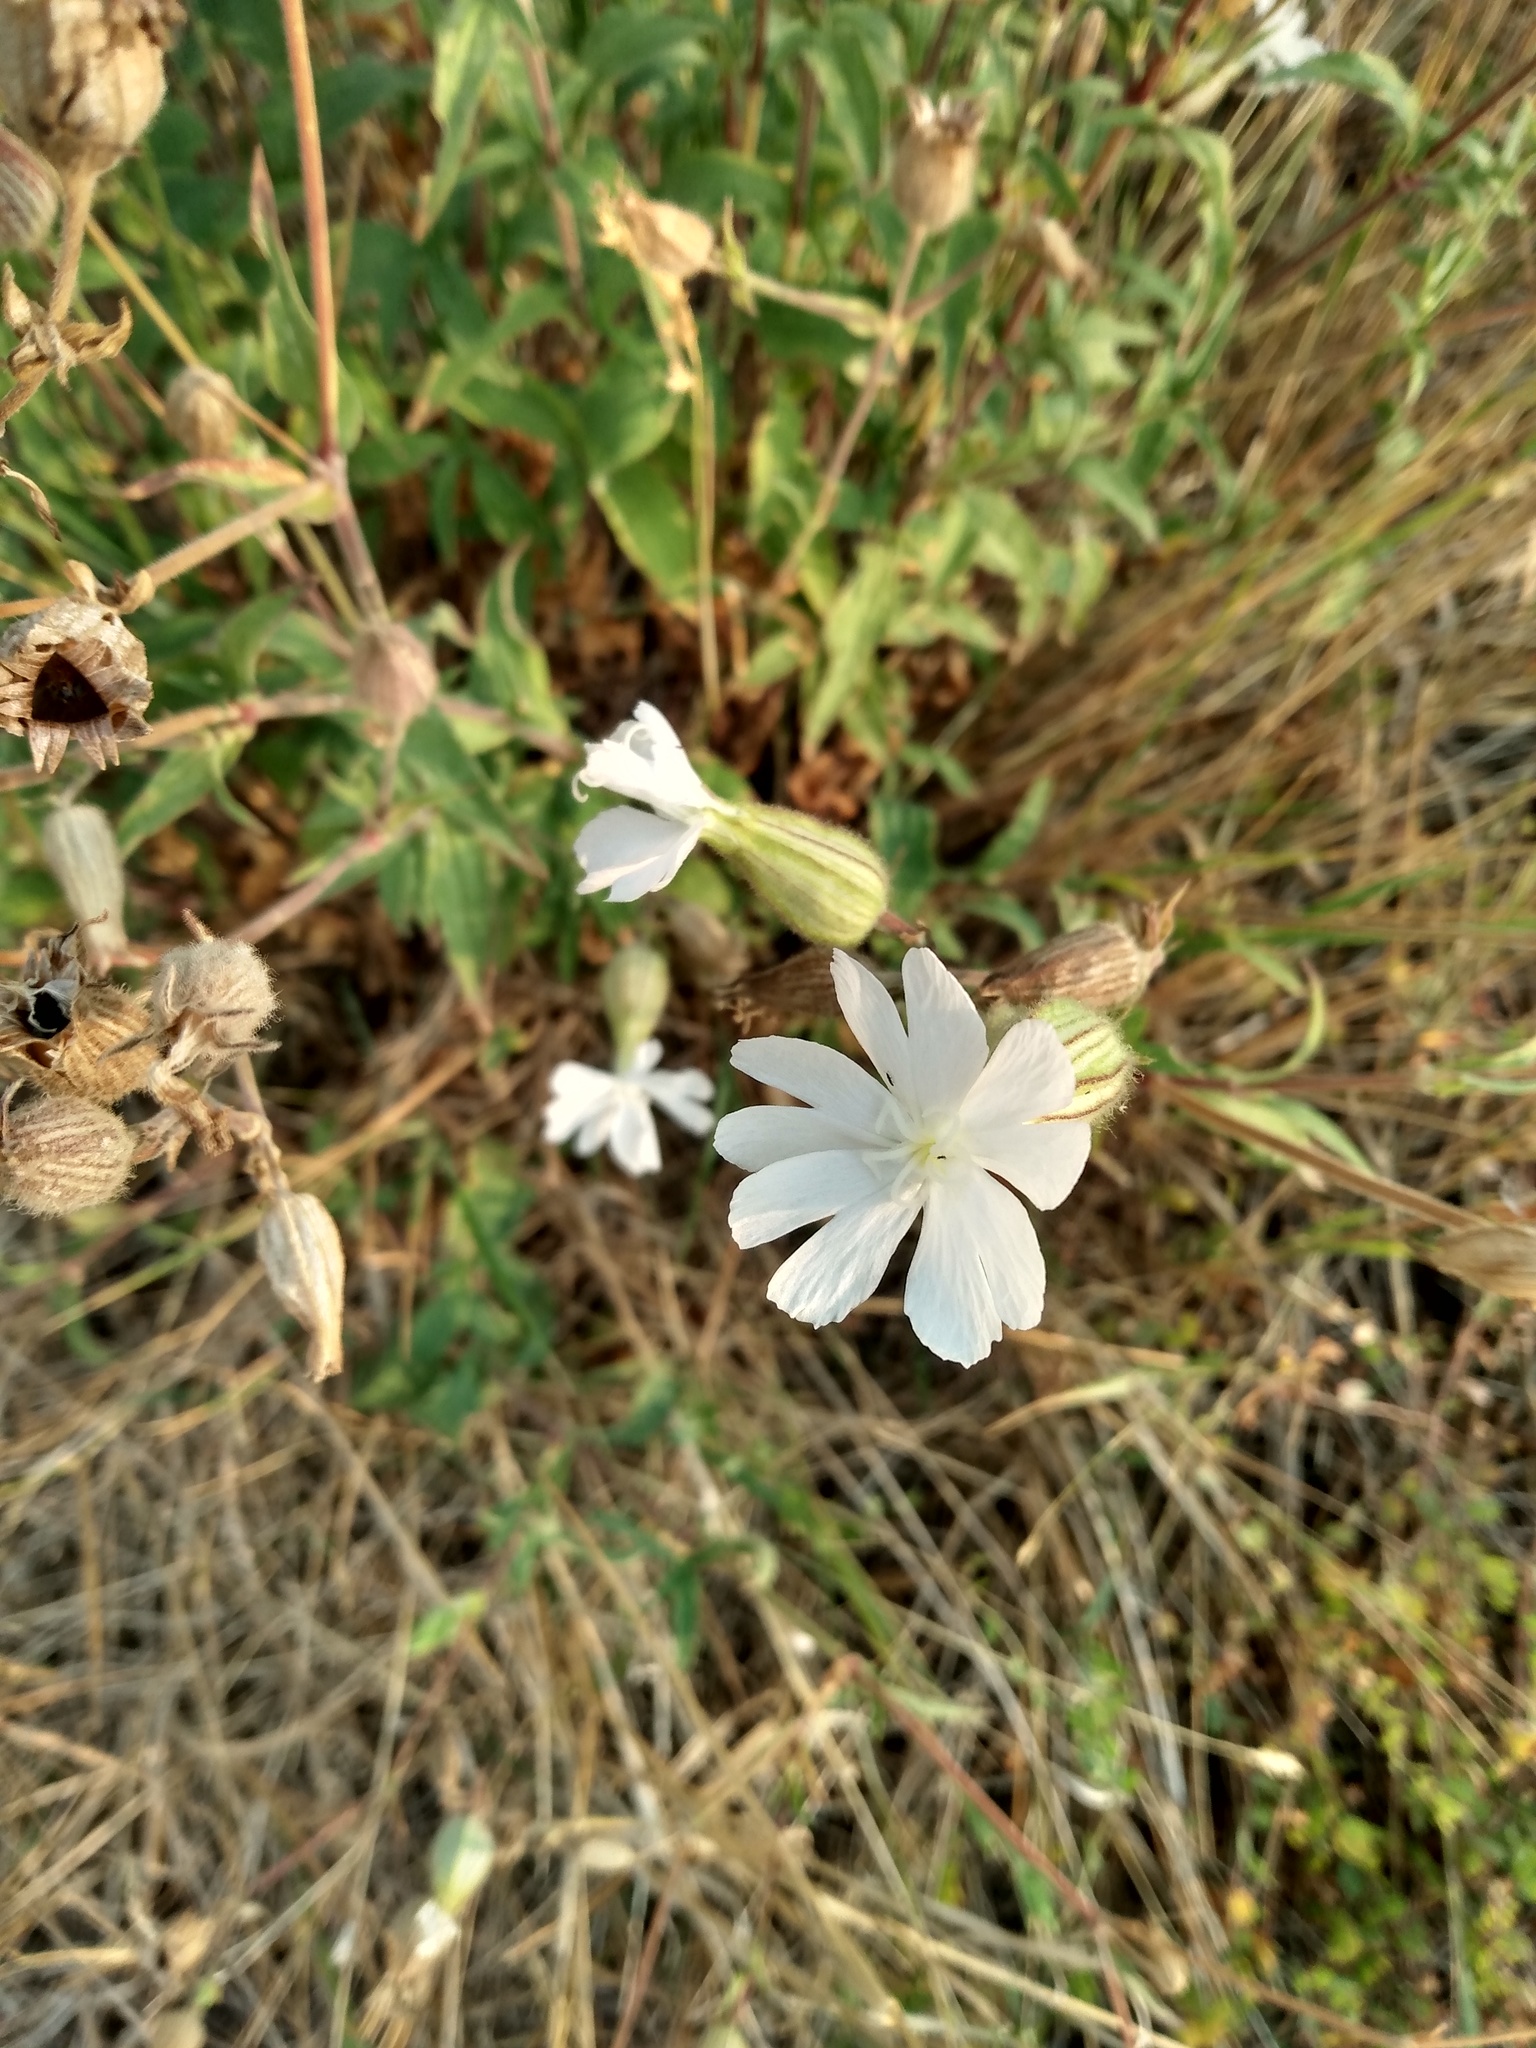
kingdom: Plantae
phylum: Tracheophyta
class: Magnoliopsida
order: Caryophyllales
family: Caryophyllaceae
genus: Silene
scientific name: Silene latifolia
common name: White campion
